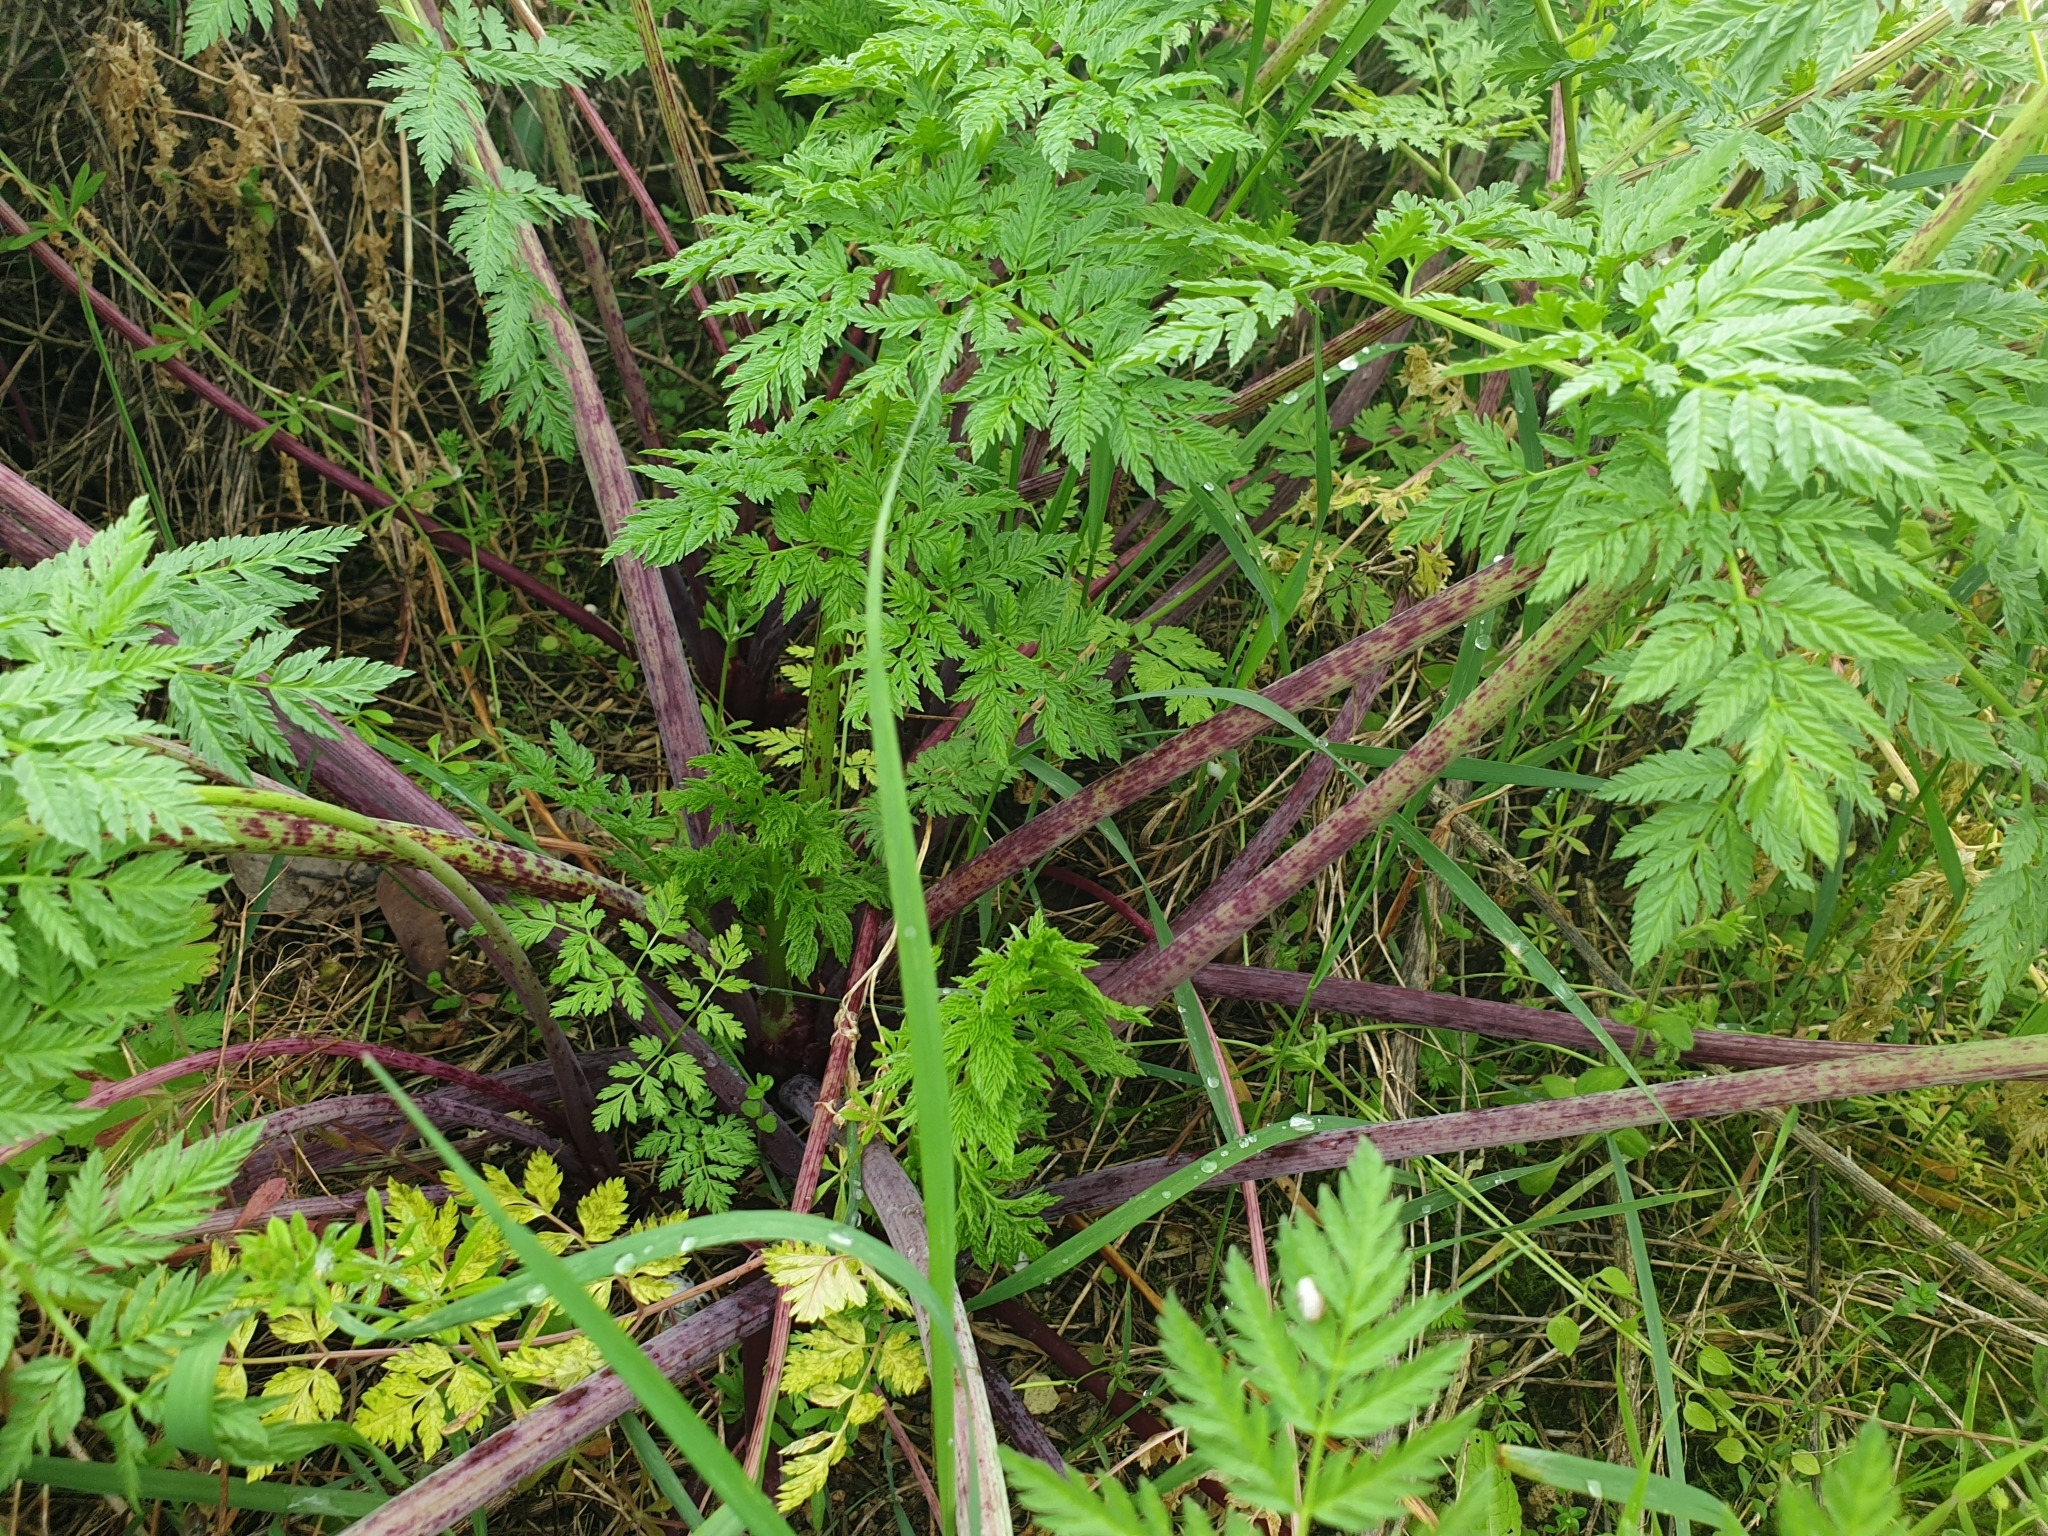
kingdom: Plantae
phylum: Tracheophyta
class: Magnoliopsida
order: Apiales
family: Apiaceae
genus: Conium
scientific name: Conium maculatum
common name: Hemlock
